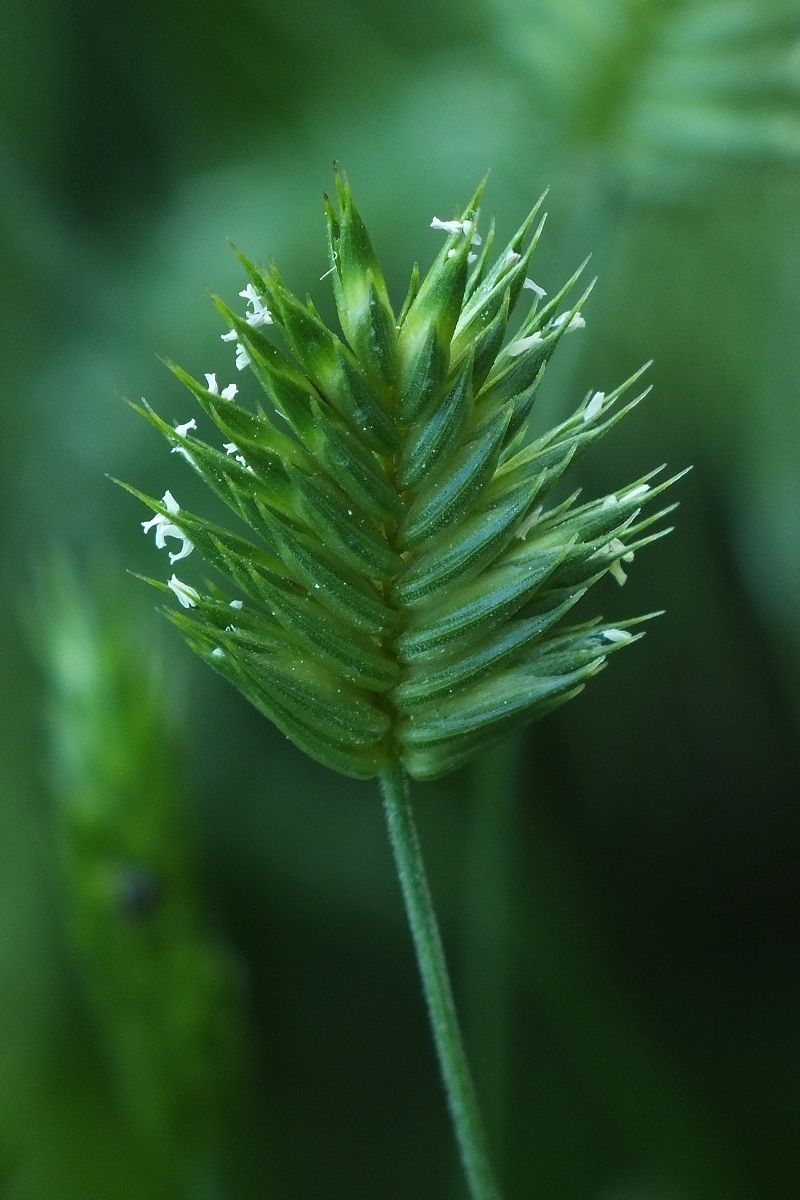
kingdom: Plantae
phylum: Tracheophyta
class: Liliopsida
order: Poales
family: Poaceae
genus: Eremopyrum
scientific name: Eremopyrum triticeum
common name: Annual wheatgrass
